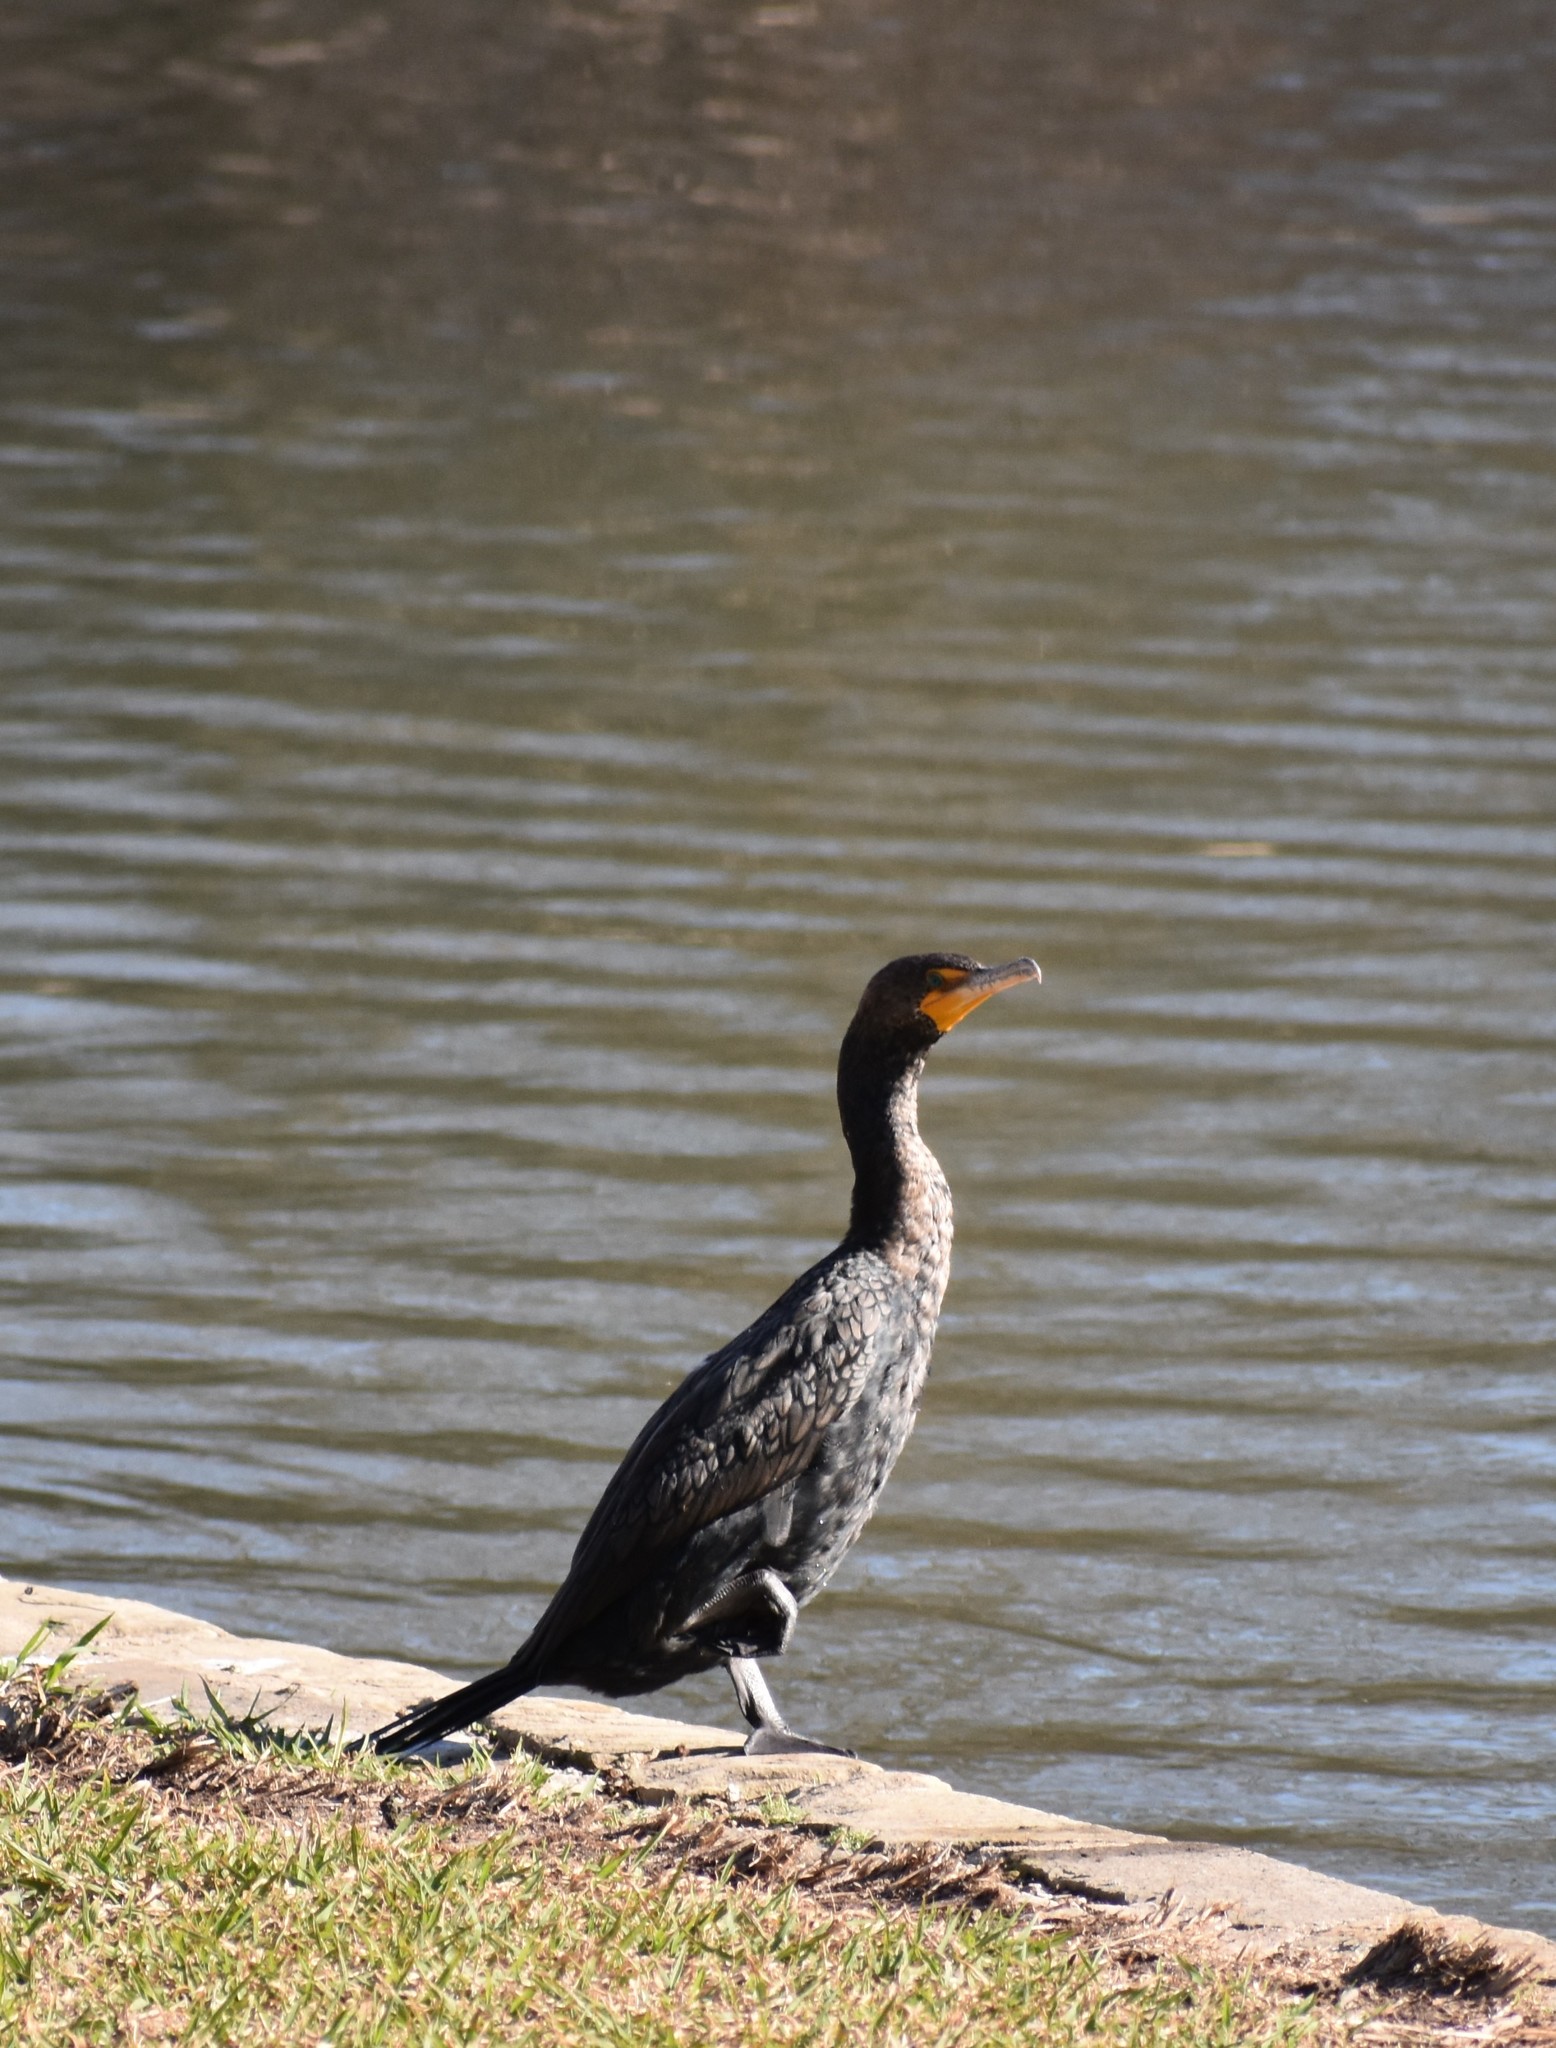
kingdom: Animalia
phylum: Chordata
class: Aves
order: Suliformes
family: Phalacrocoracidae
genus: Phalacrocorax
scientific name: Phalacrocorax auritus
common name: Double-crested cormorant
